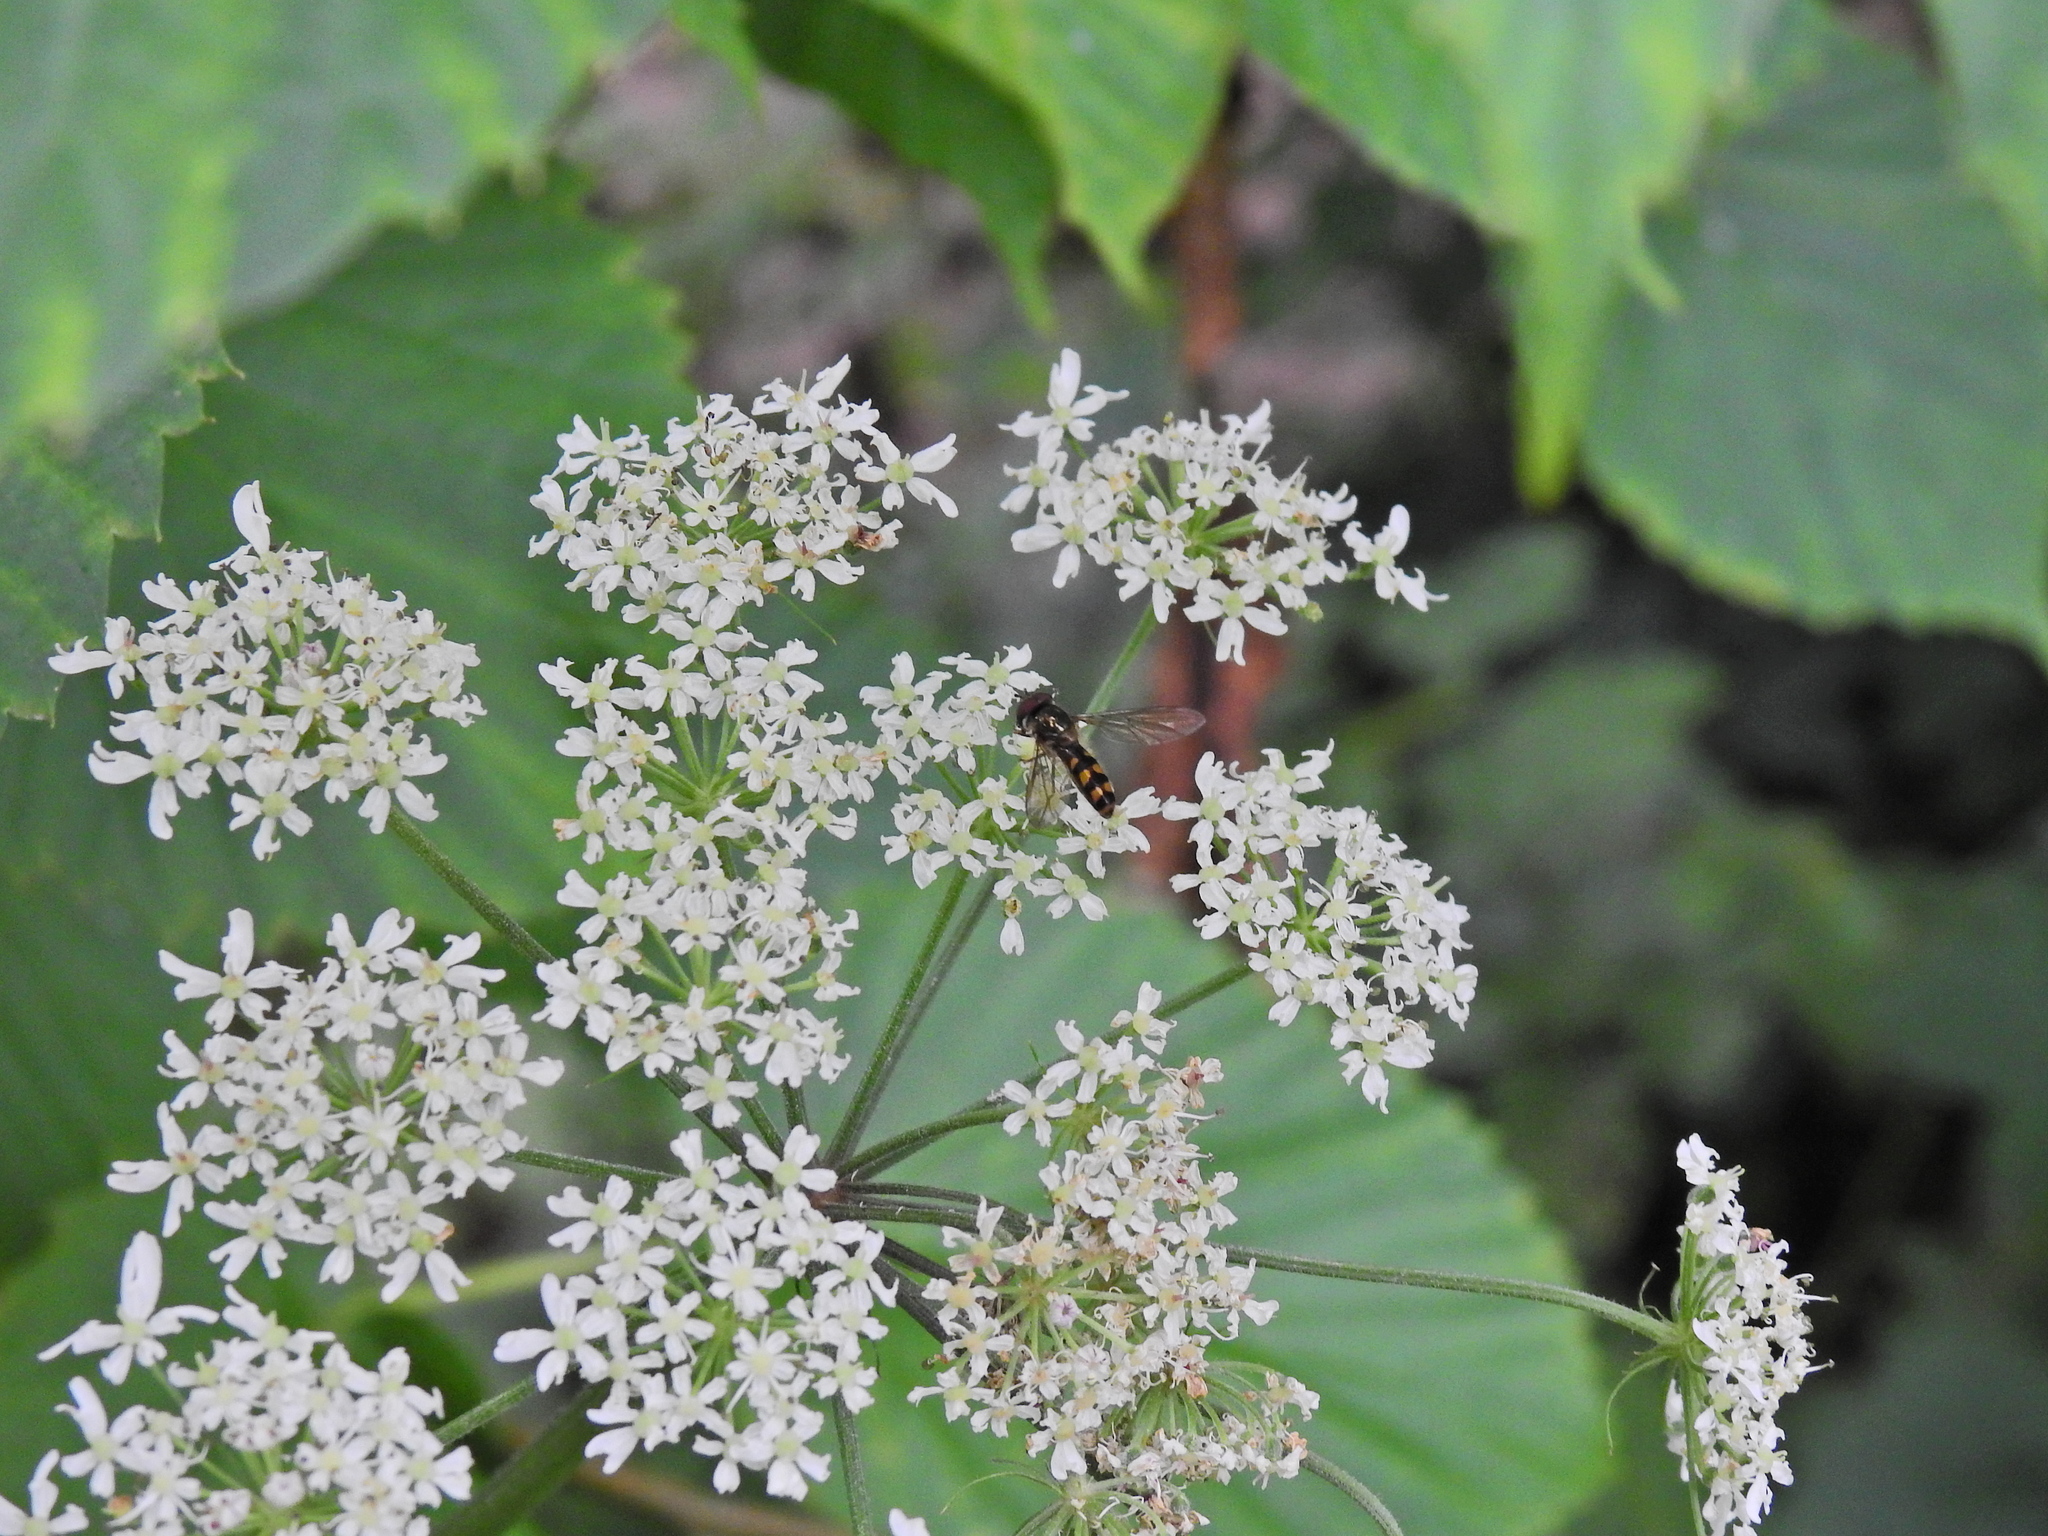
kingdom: Animalia
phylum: Arthropoda
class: Insecta
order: Diptera
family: Syrphidae
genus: Meliscaeva
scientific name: Meliscaeva auricollis
